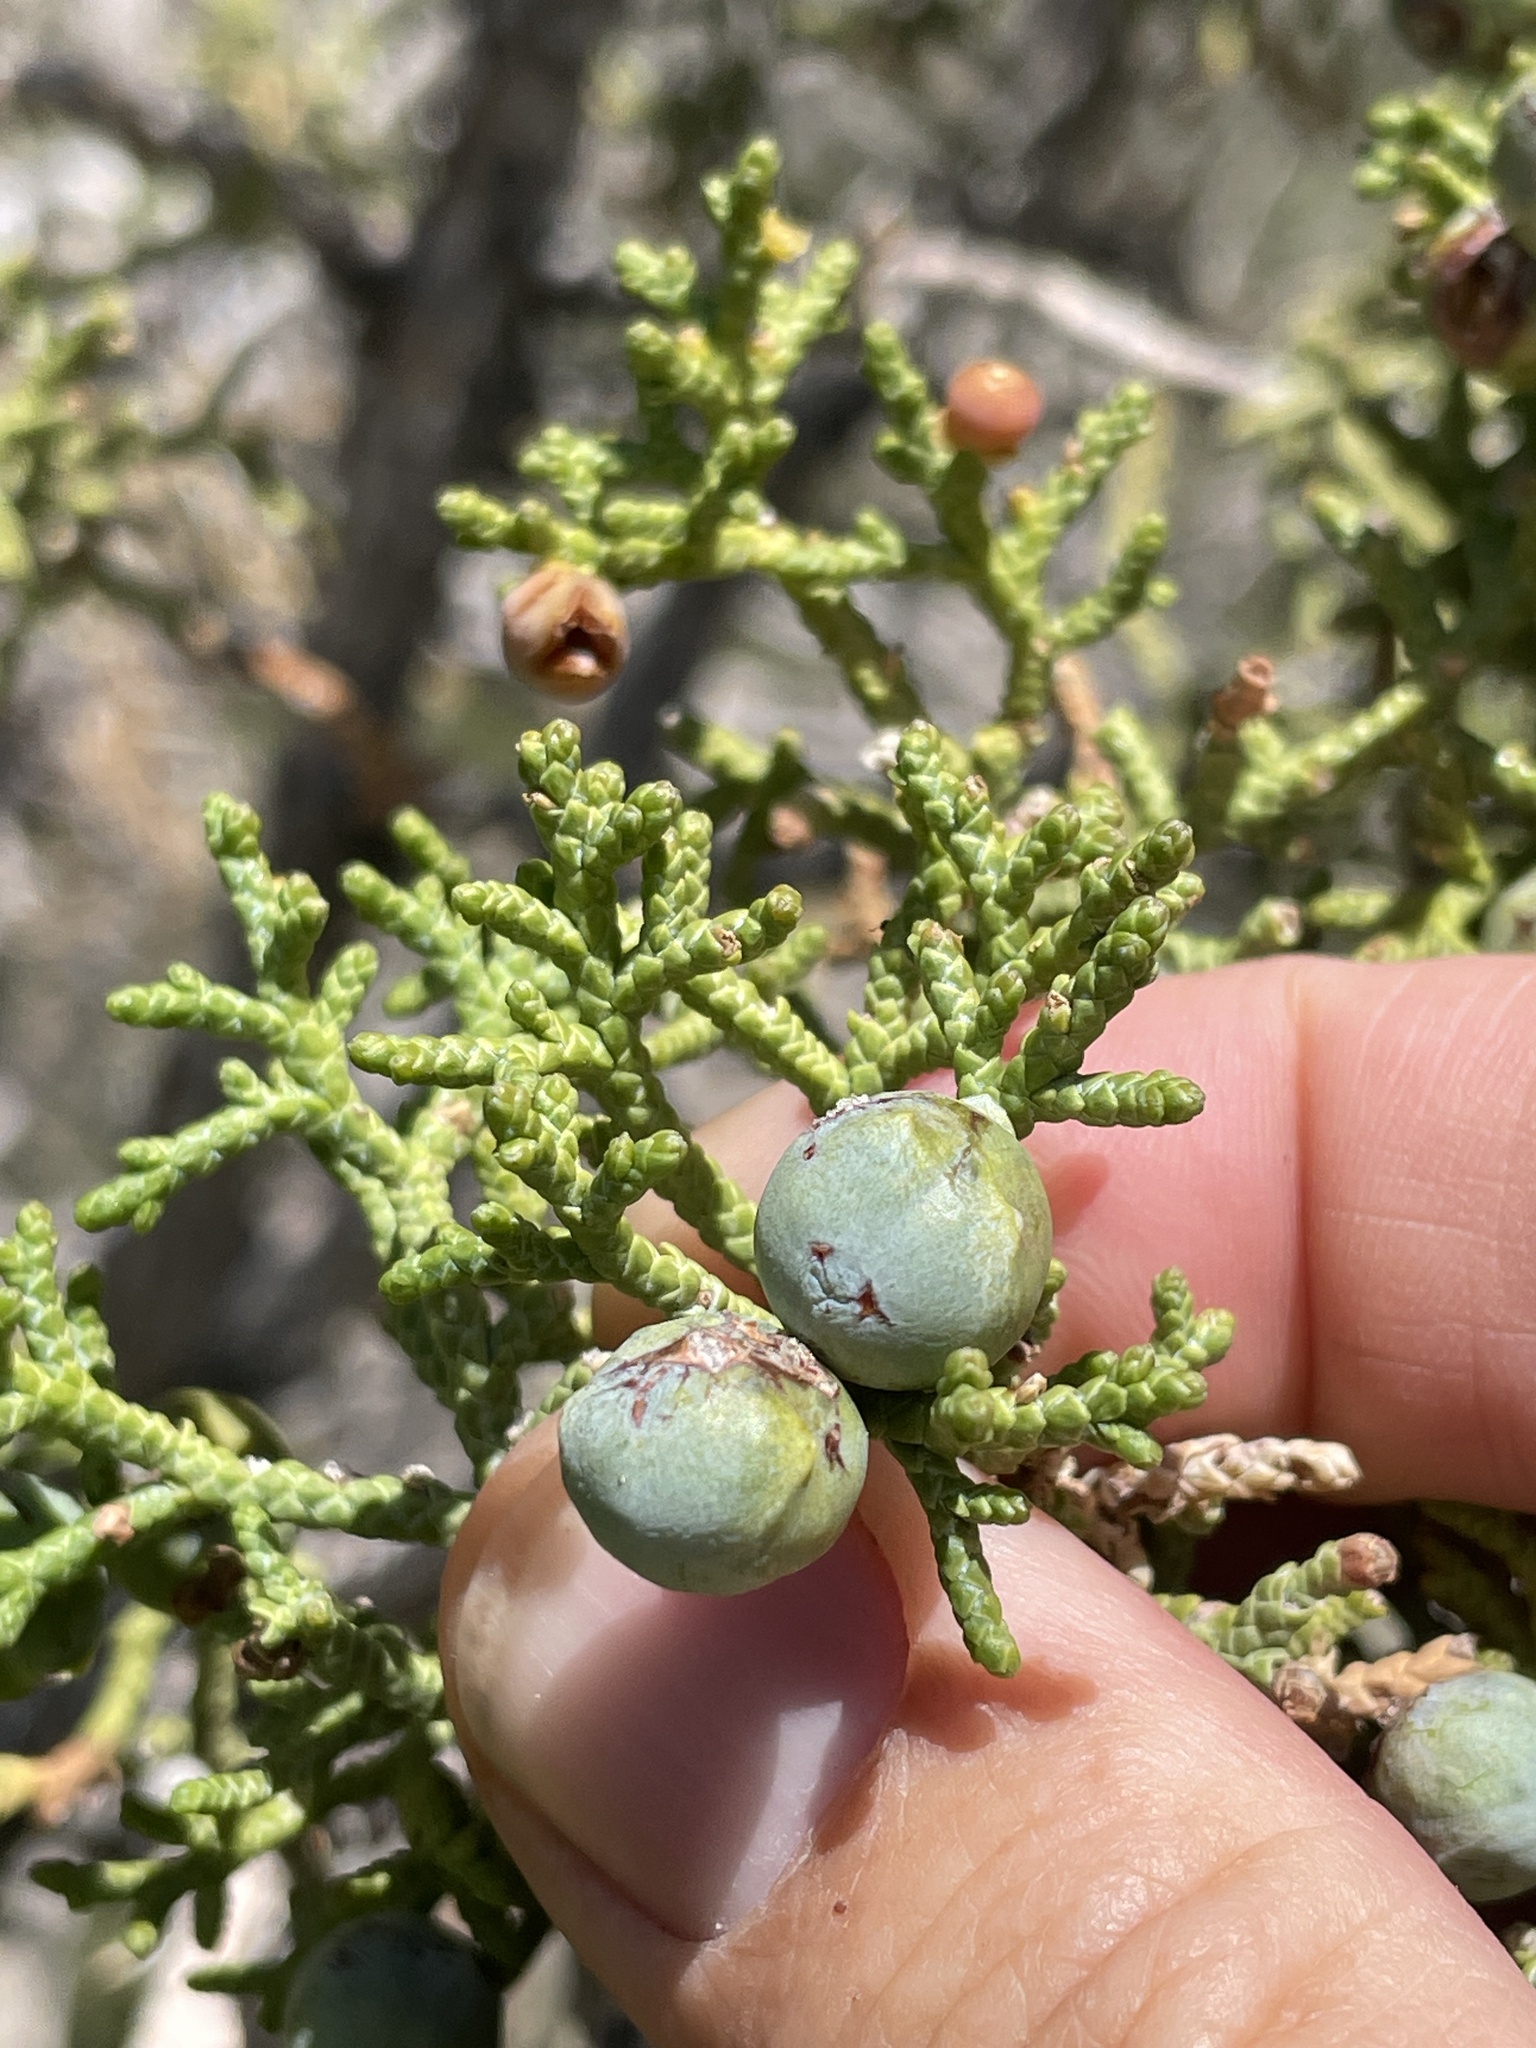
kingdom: Plantae
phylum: Tracheophyta
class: Pinopsida
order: Pinales
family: Cupressaceae
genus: Juniperus
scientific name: Juniperus osteosperma
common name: Utah juniper
